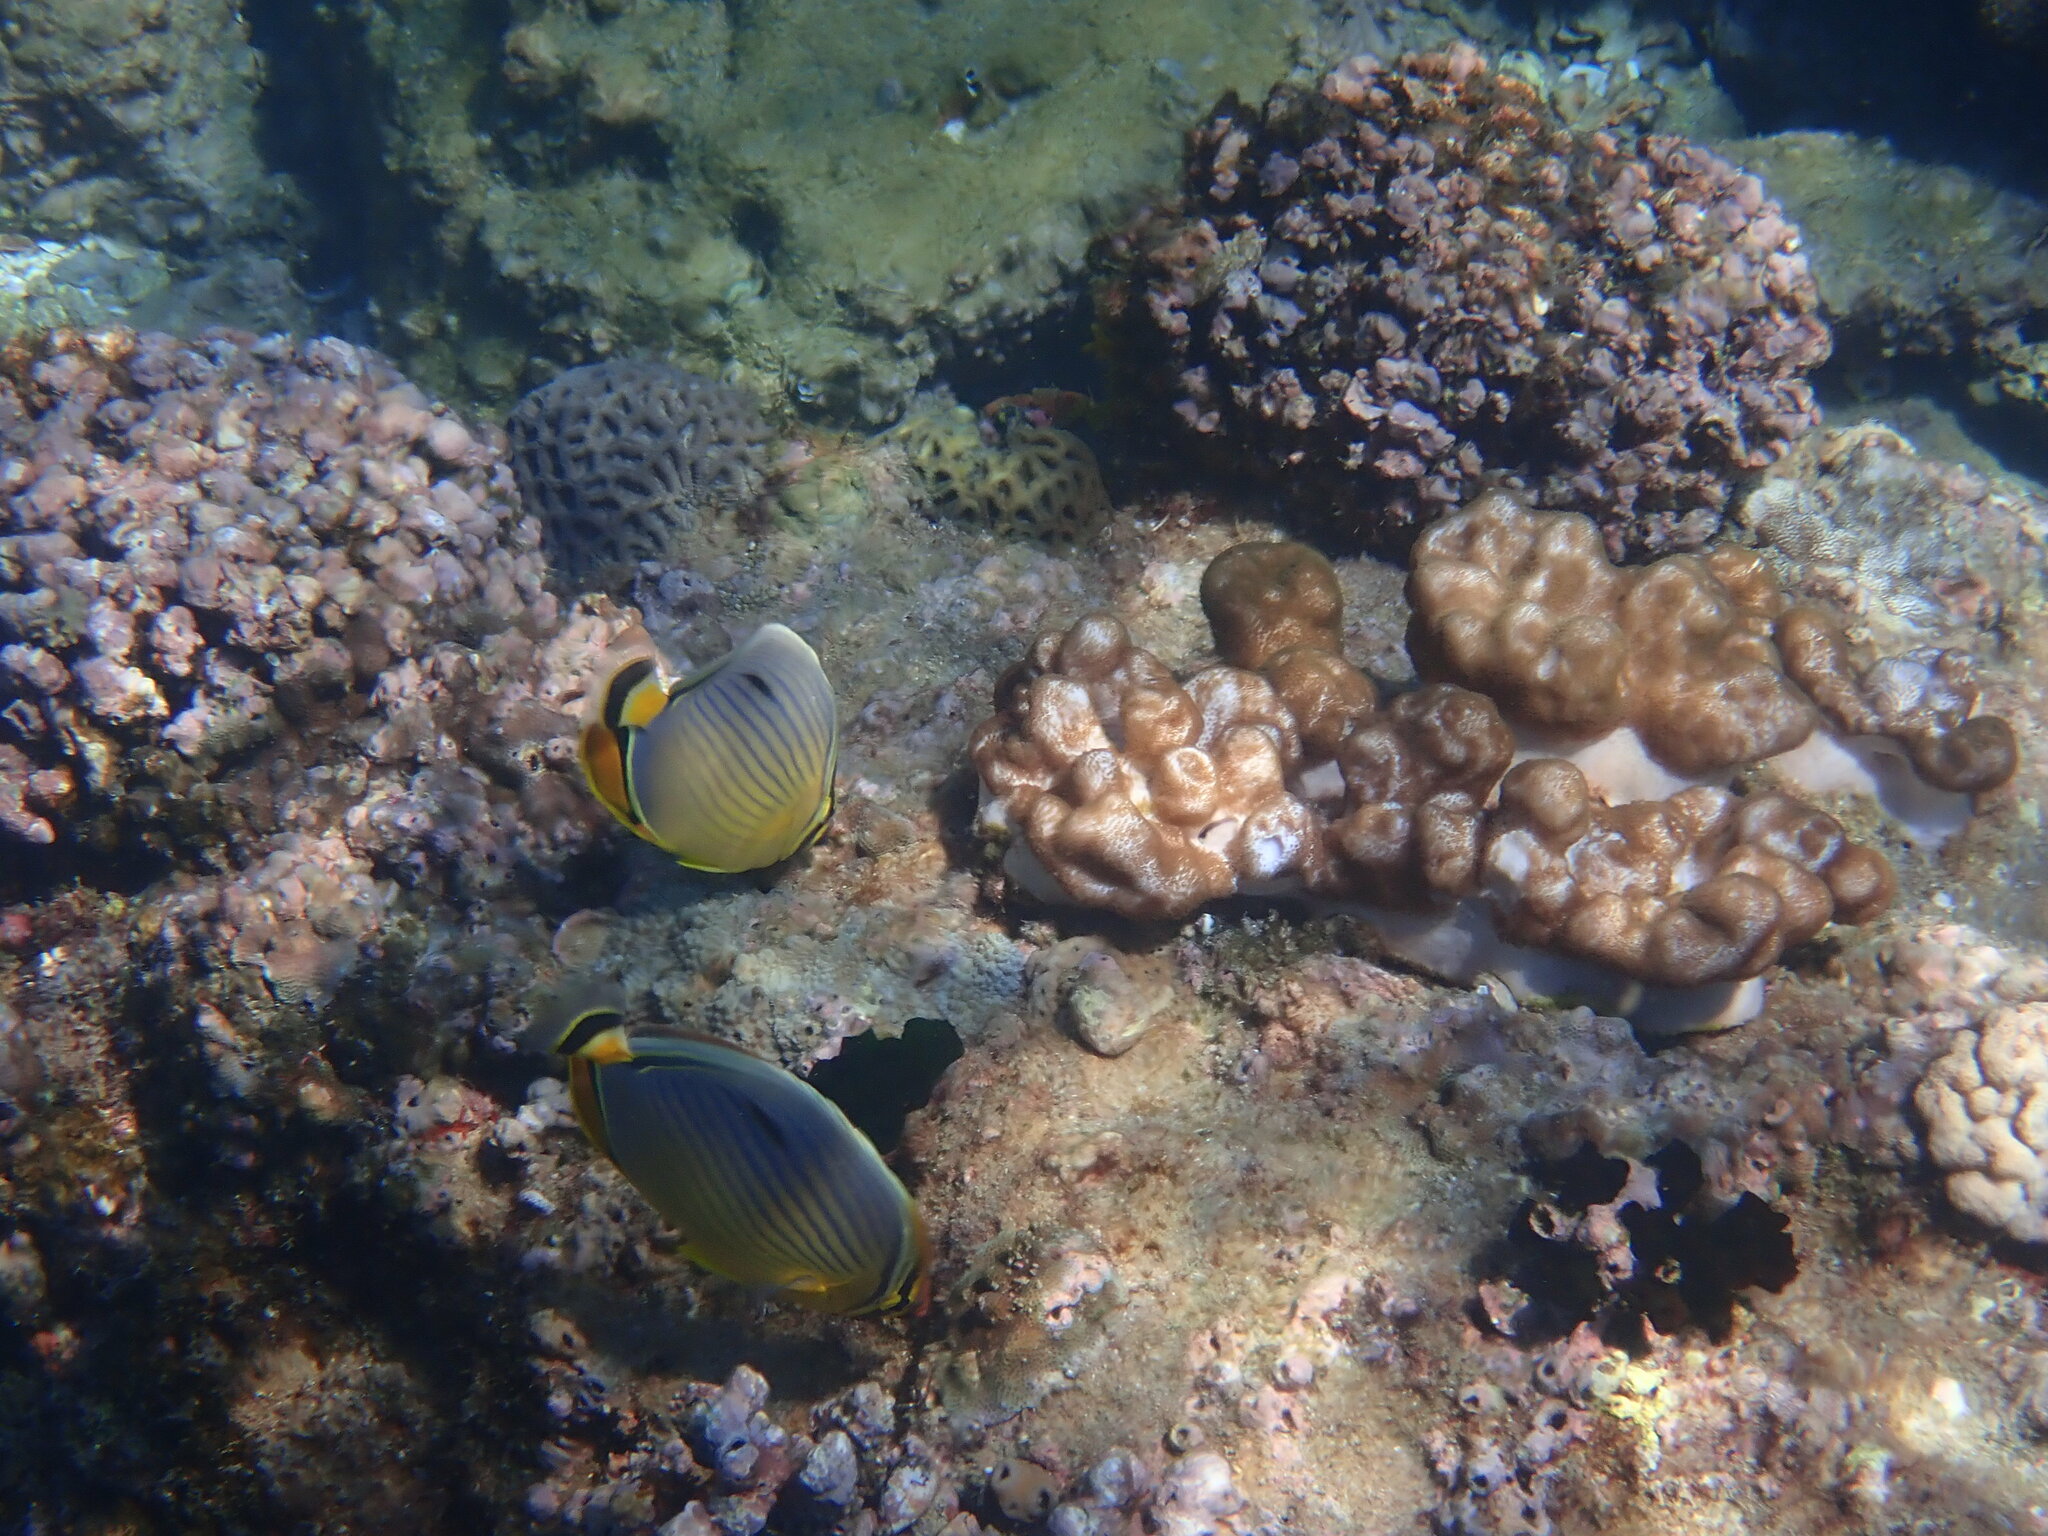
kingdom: Animalia
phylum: Chordata
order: Perciformes
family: Chaetodontidae
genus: Chaetodon
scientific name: Chaetodon trifasciatus
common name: Redfin butterflyfish
